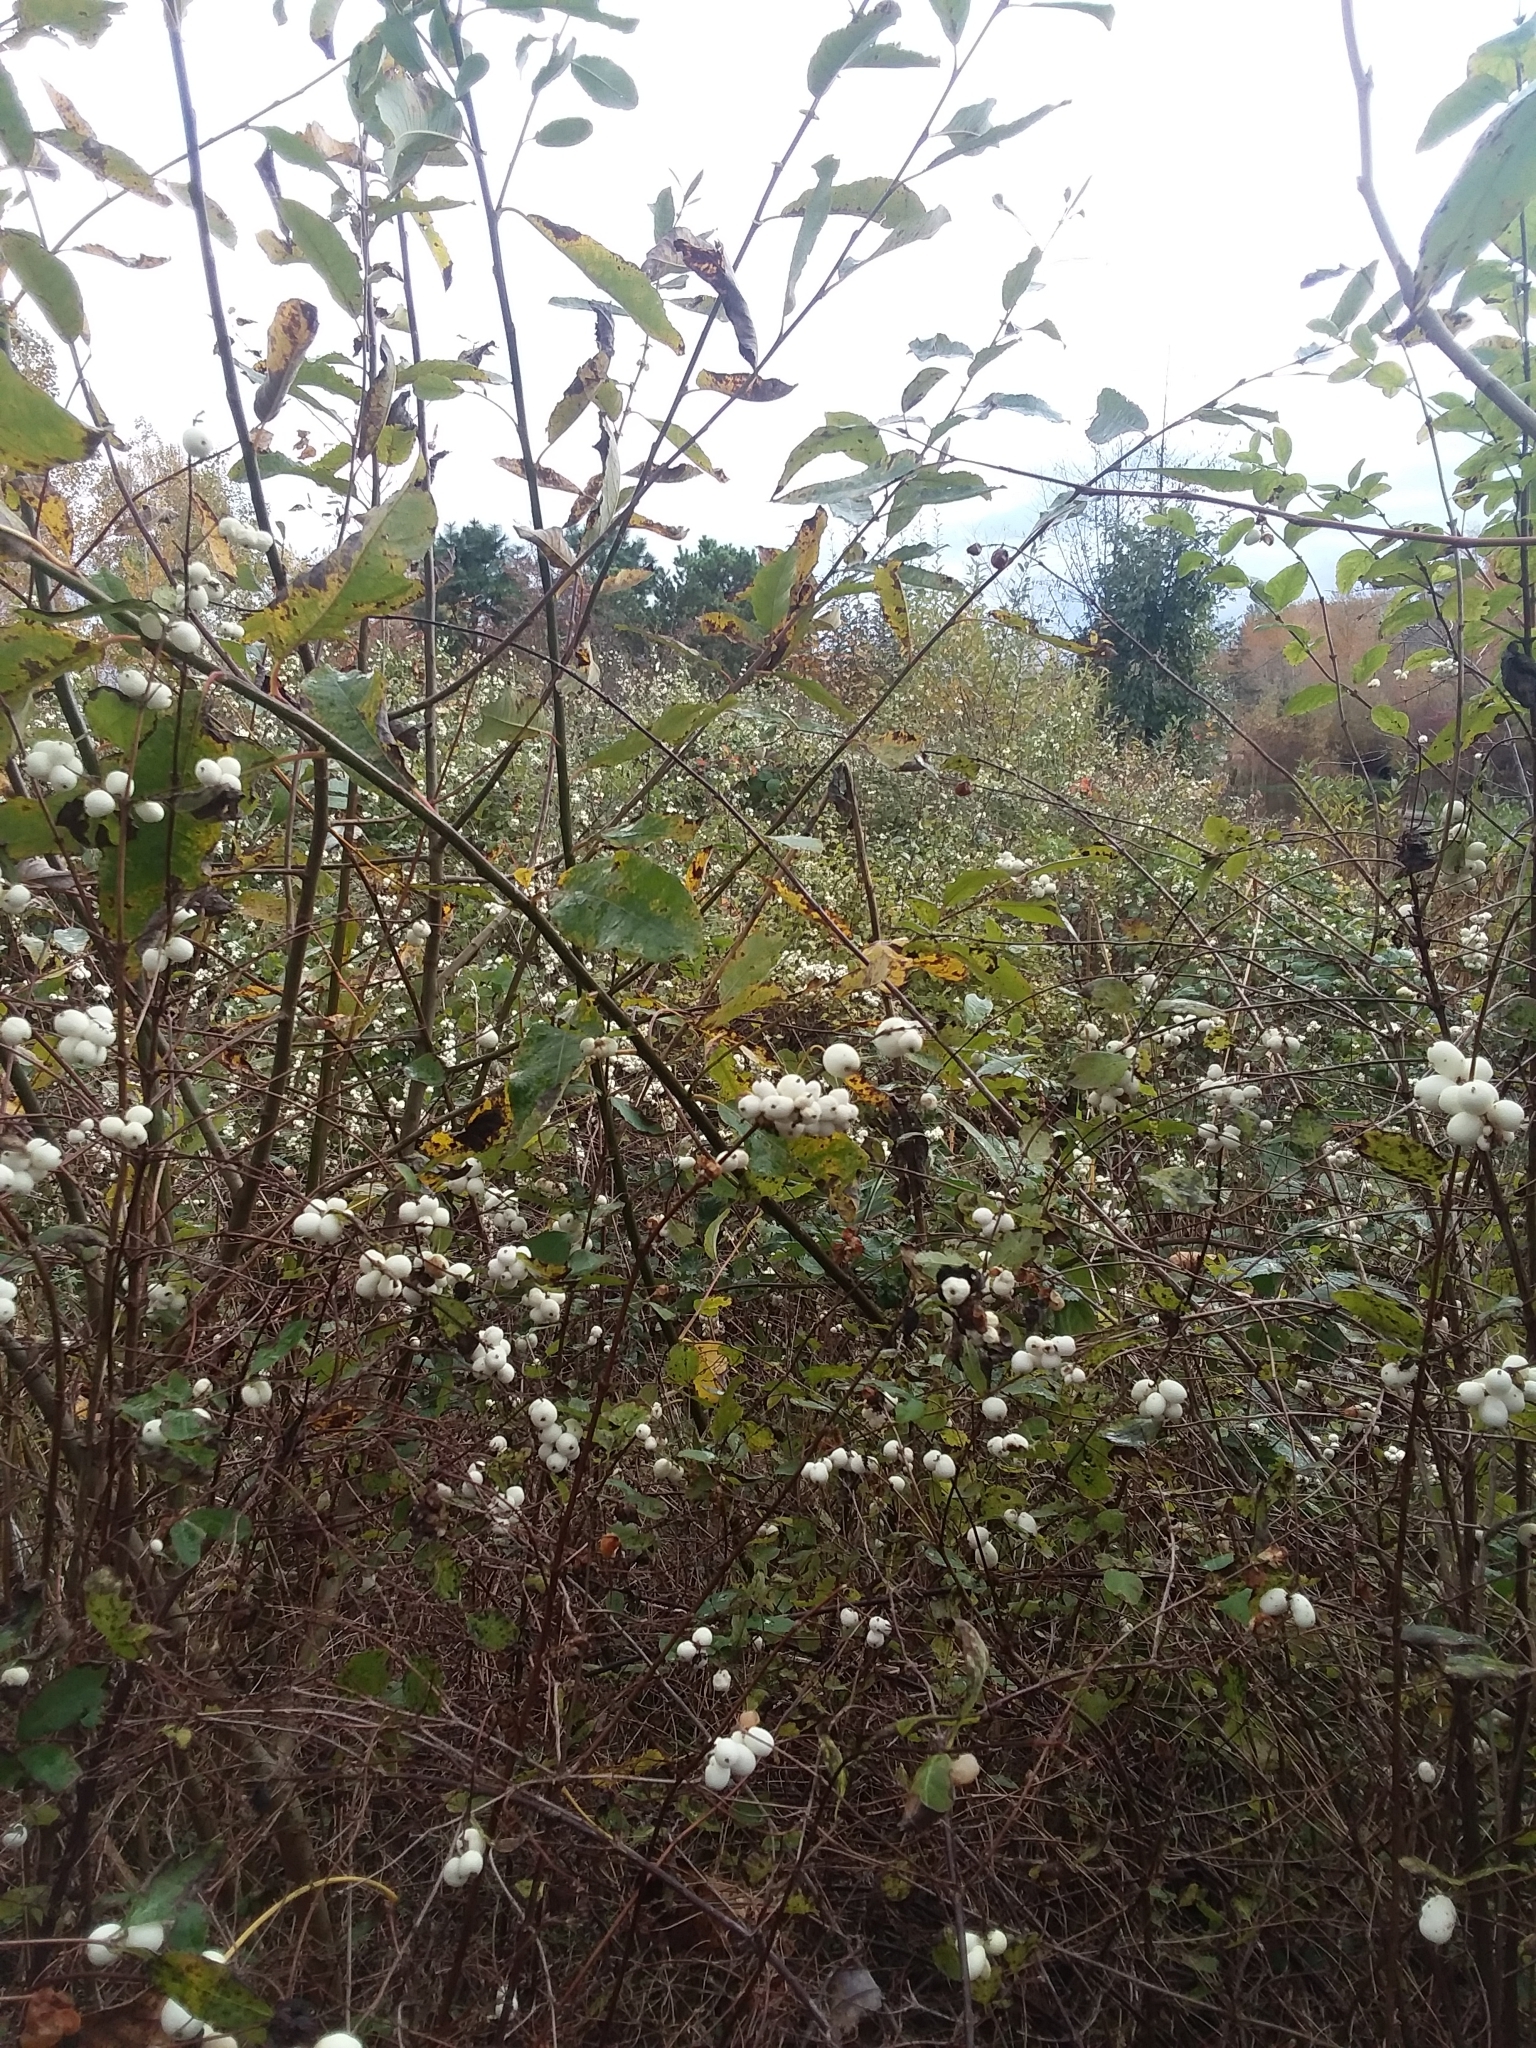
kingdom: Plantae
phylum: Tracheophyta
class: Magnoliopsida
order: Dipsacales
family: Caprifoliaceae
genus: Symphoricarpos
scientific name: Symphoricarpos albus
